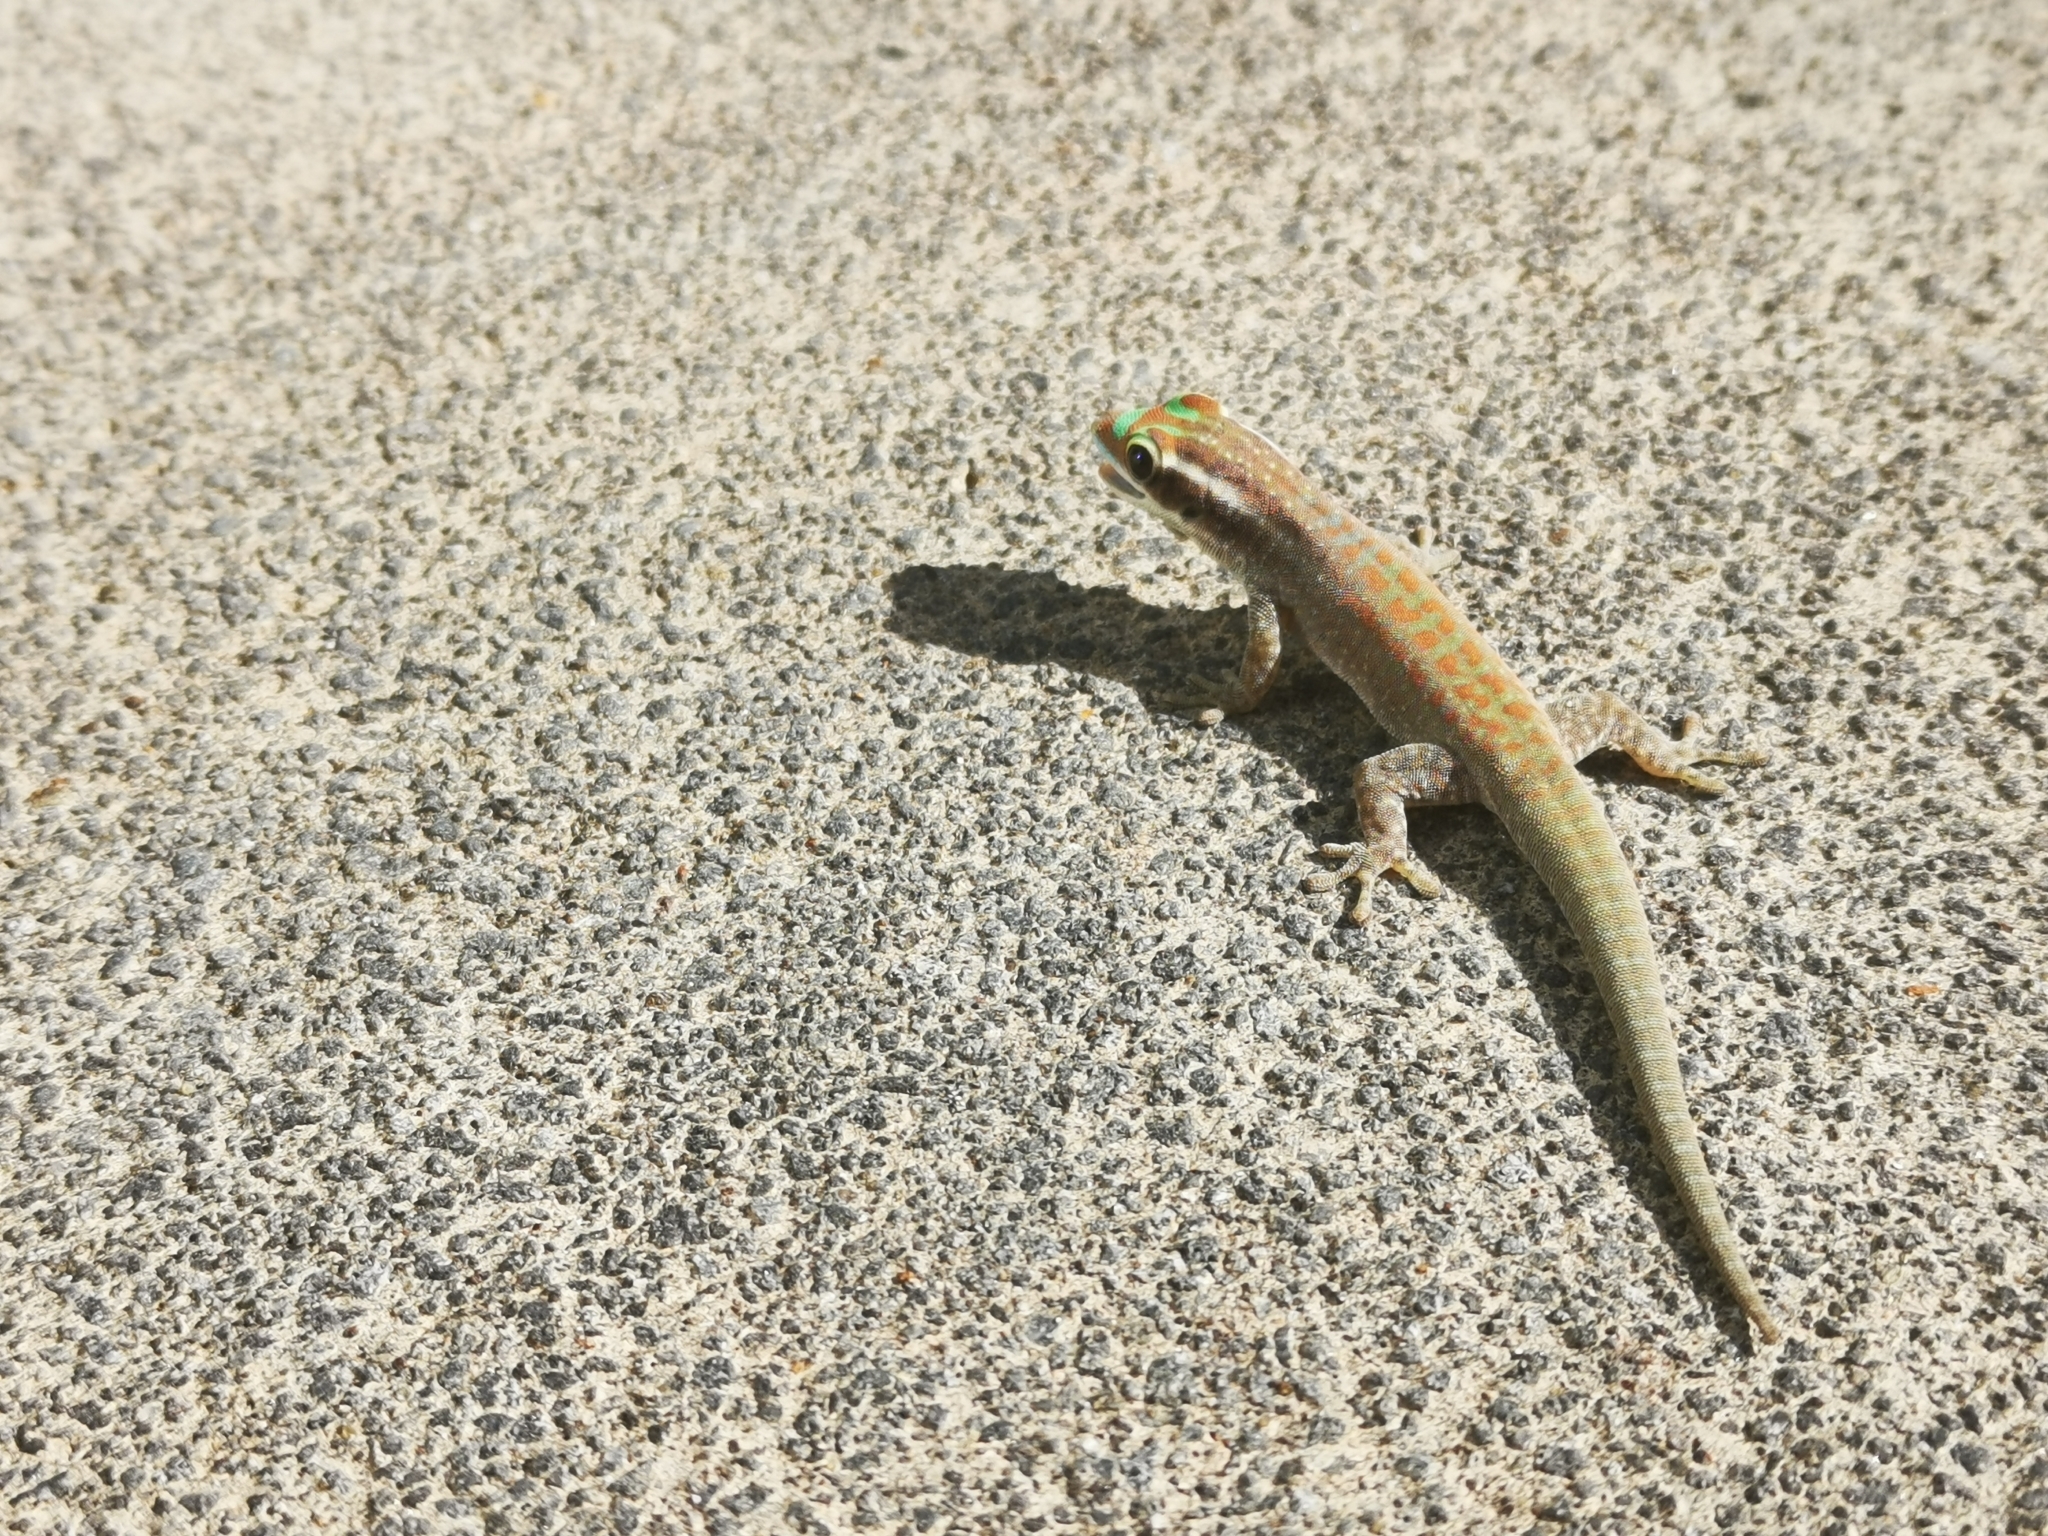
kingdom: Animalia
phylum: Chordata
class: Squamata
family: Gekkonidae
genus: Phelsuma
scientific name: Phelsuma ornata
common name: Ornate day gecko
